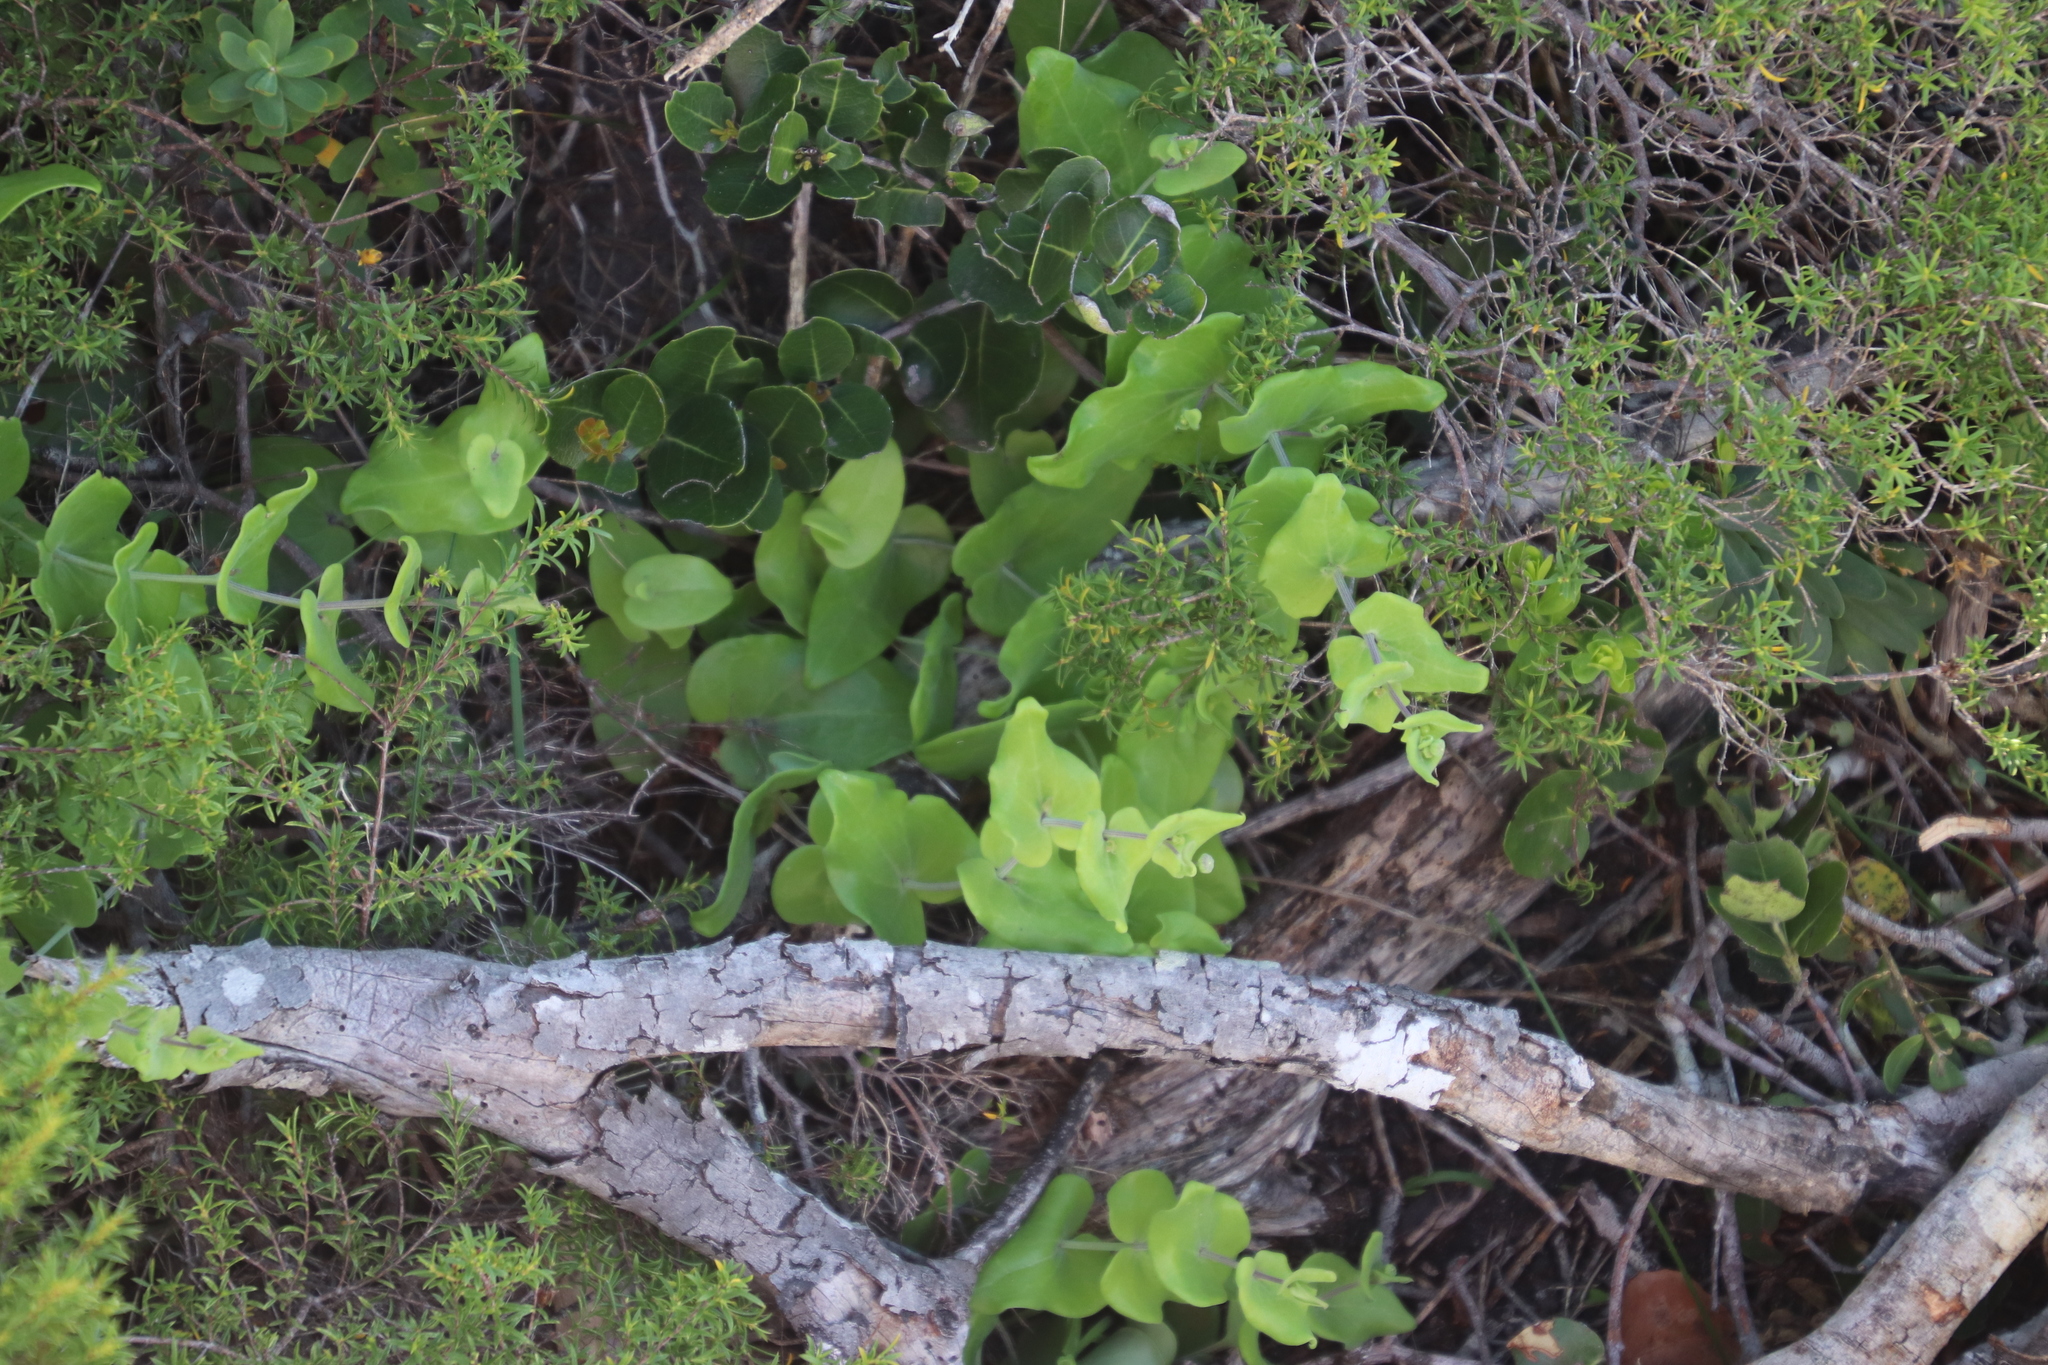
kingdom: Plantae
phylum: Tracheophyta
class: Magnoliopsida
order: Asterales
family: Asteraceae
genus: Othonna
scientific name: Othonna undulosa
